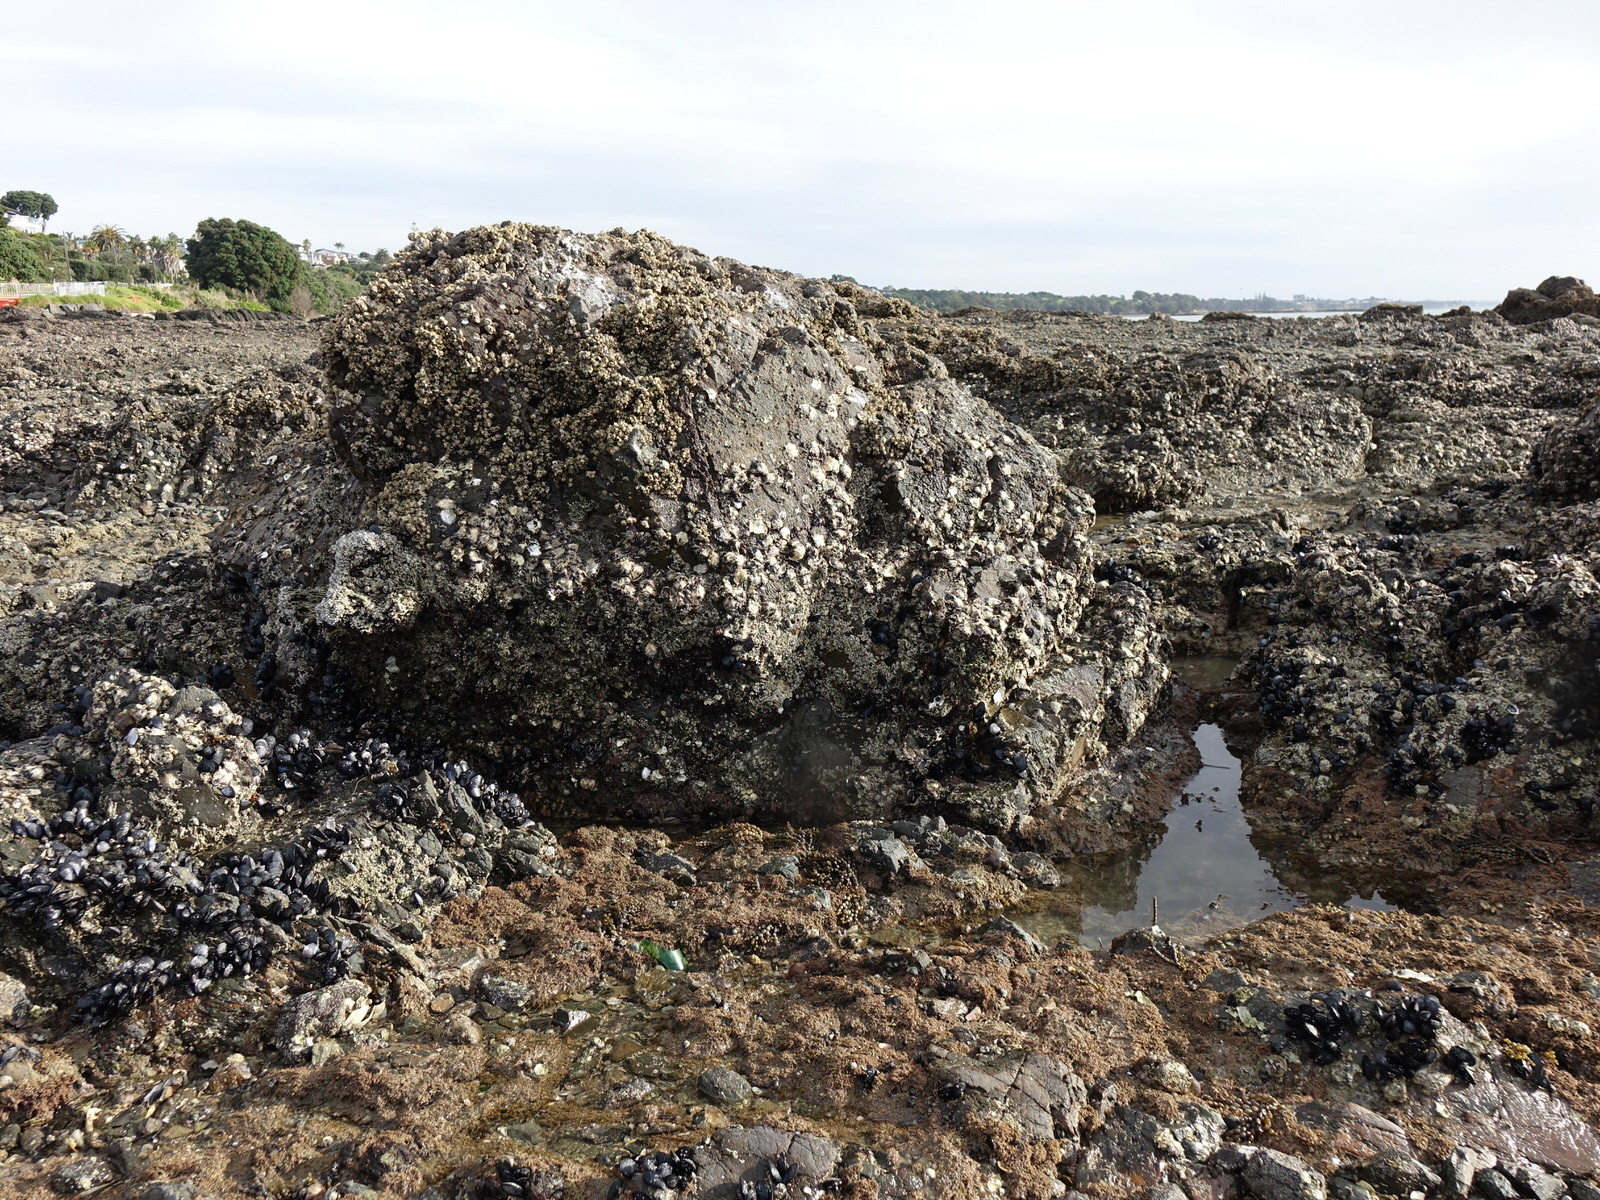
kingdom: Animalia
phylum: Cnidaria
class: Anthozoa
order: Actiniaria
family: Actiniidae
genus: Isactinia
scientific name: Isactinia olivacea
